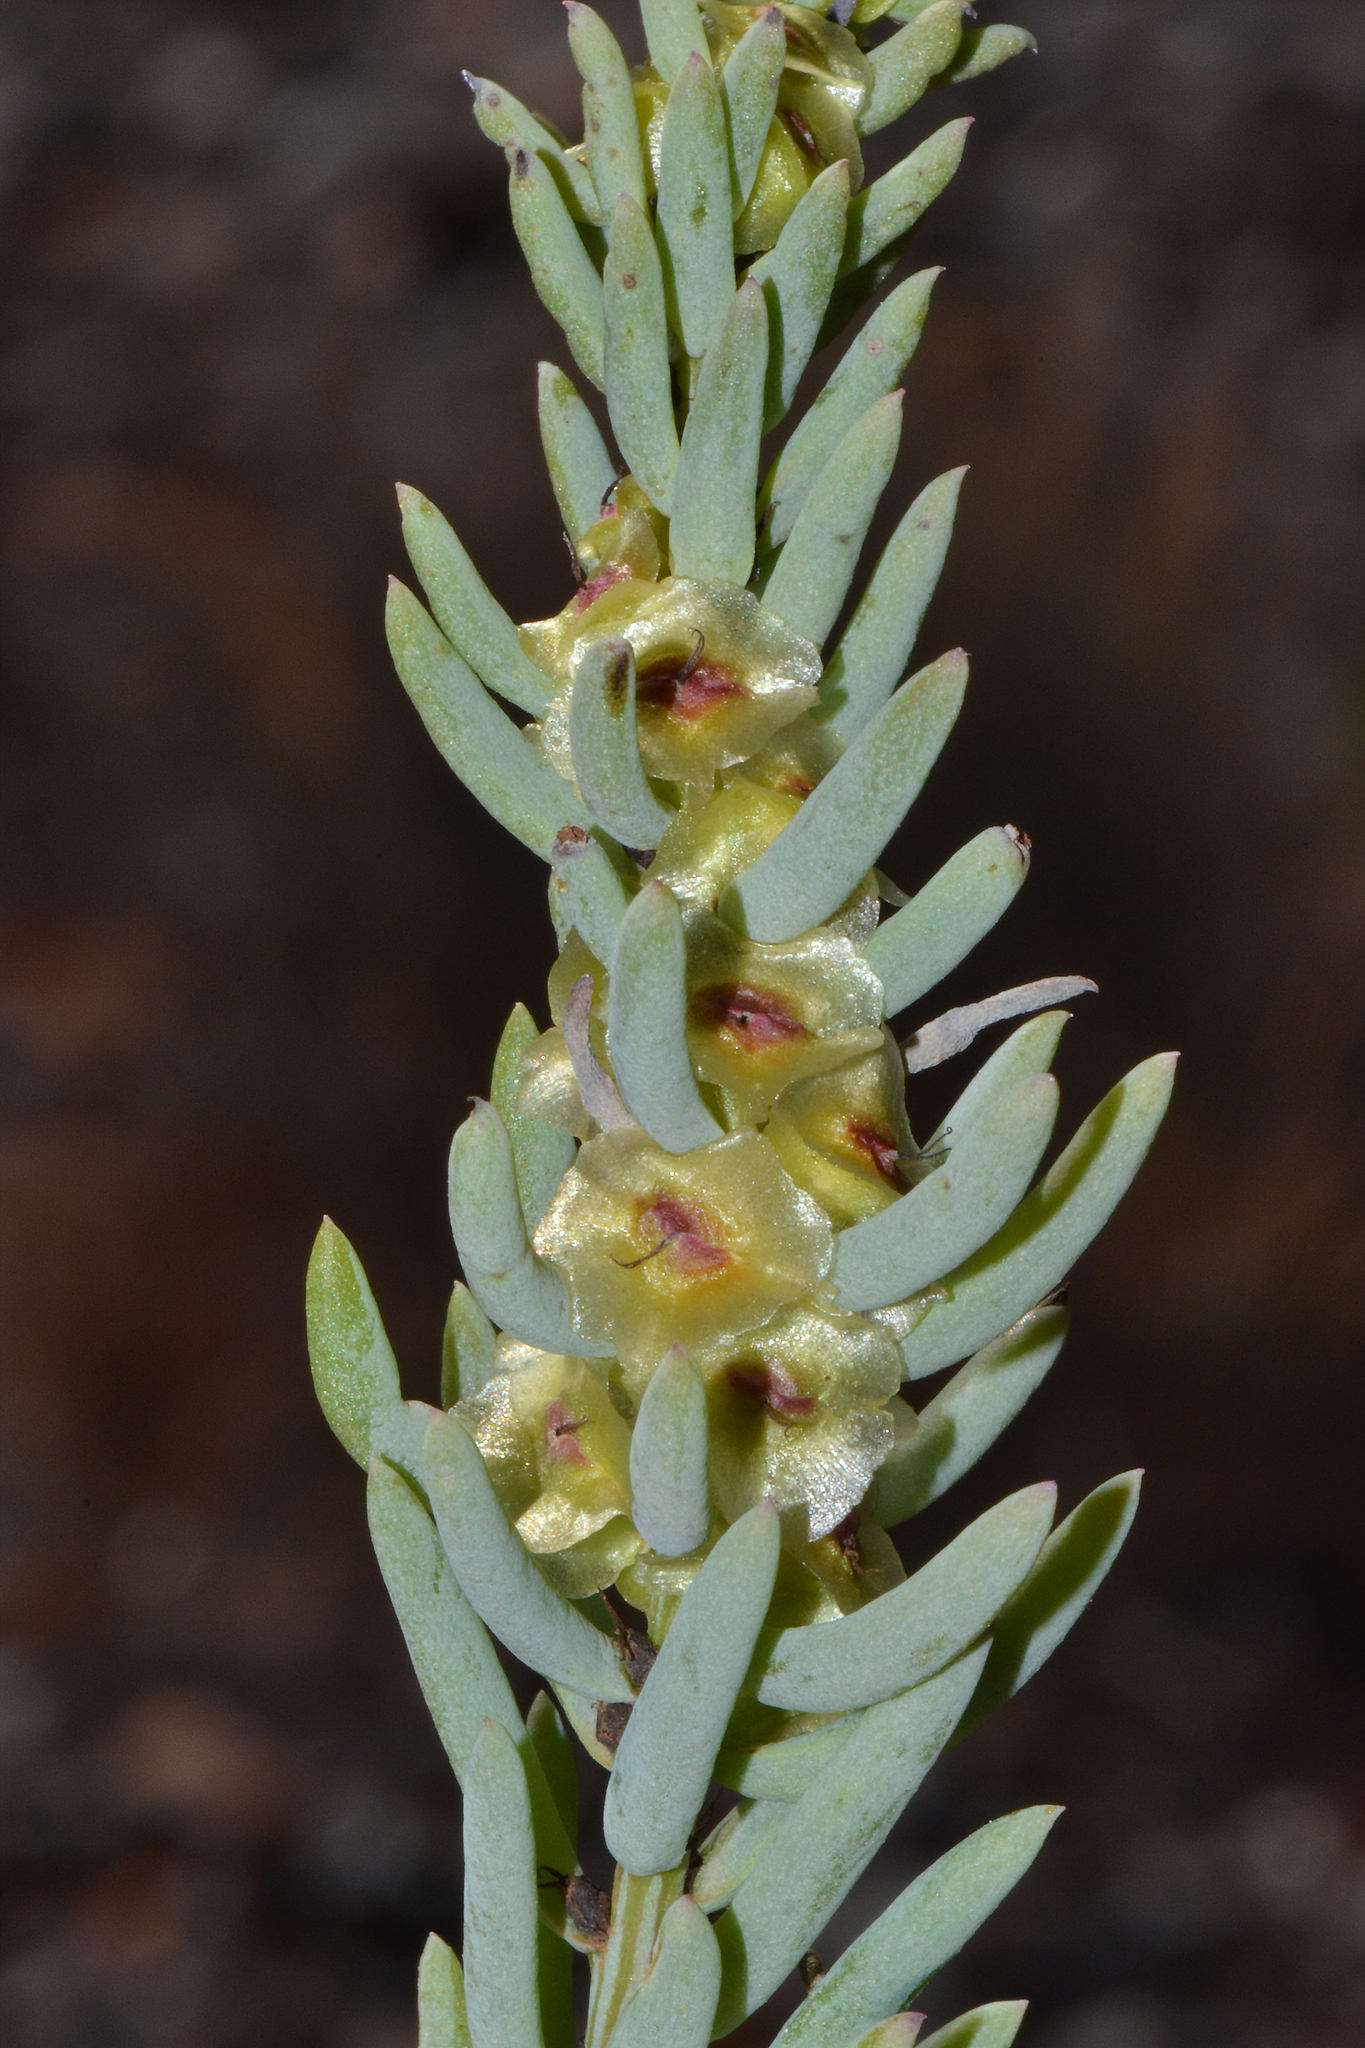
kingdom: Plantae
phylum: Tracheophyta
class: Magnoliopsida
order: Caryophyllales
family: Amaranthaceae
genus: Maireana
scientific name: Maireana triptera
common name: Three-wing bluebush
